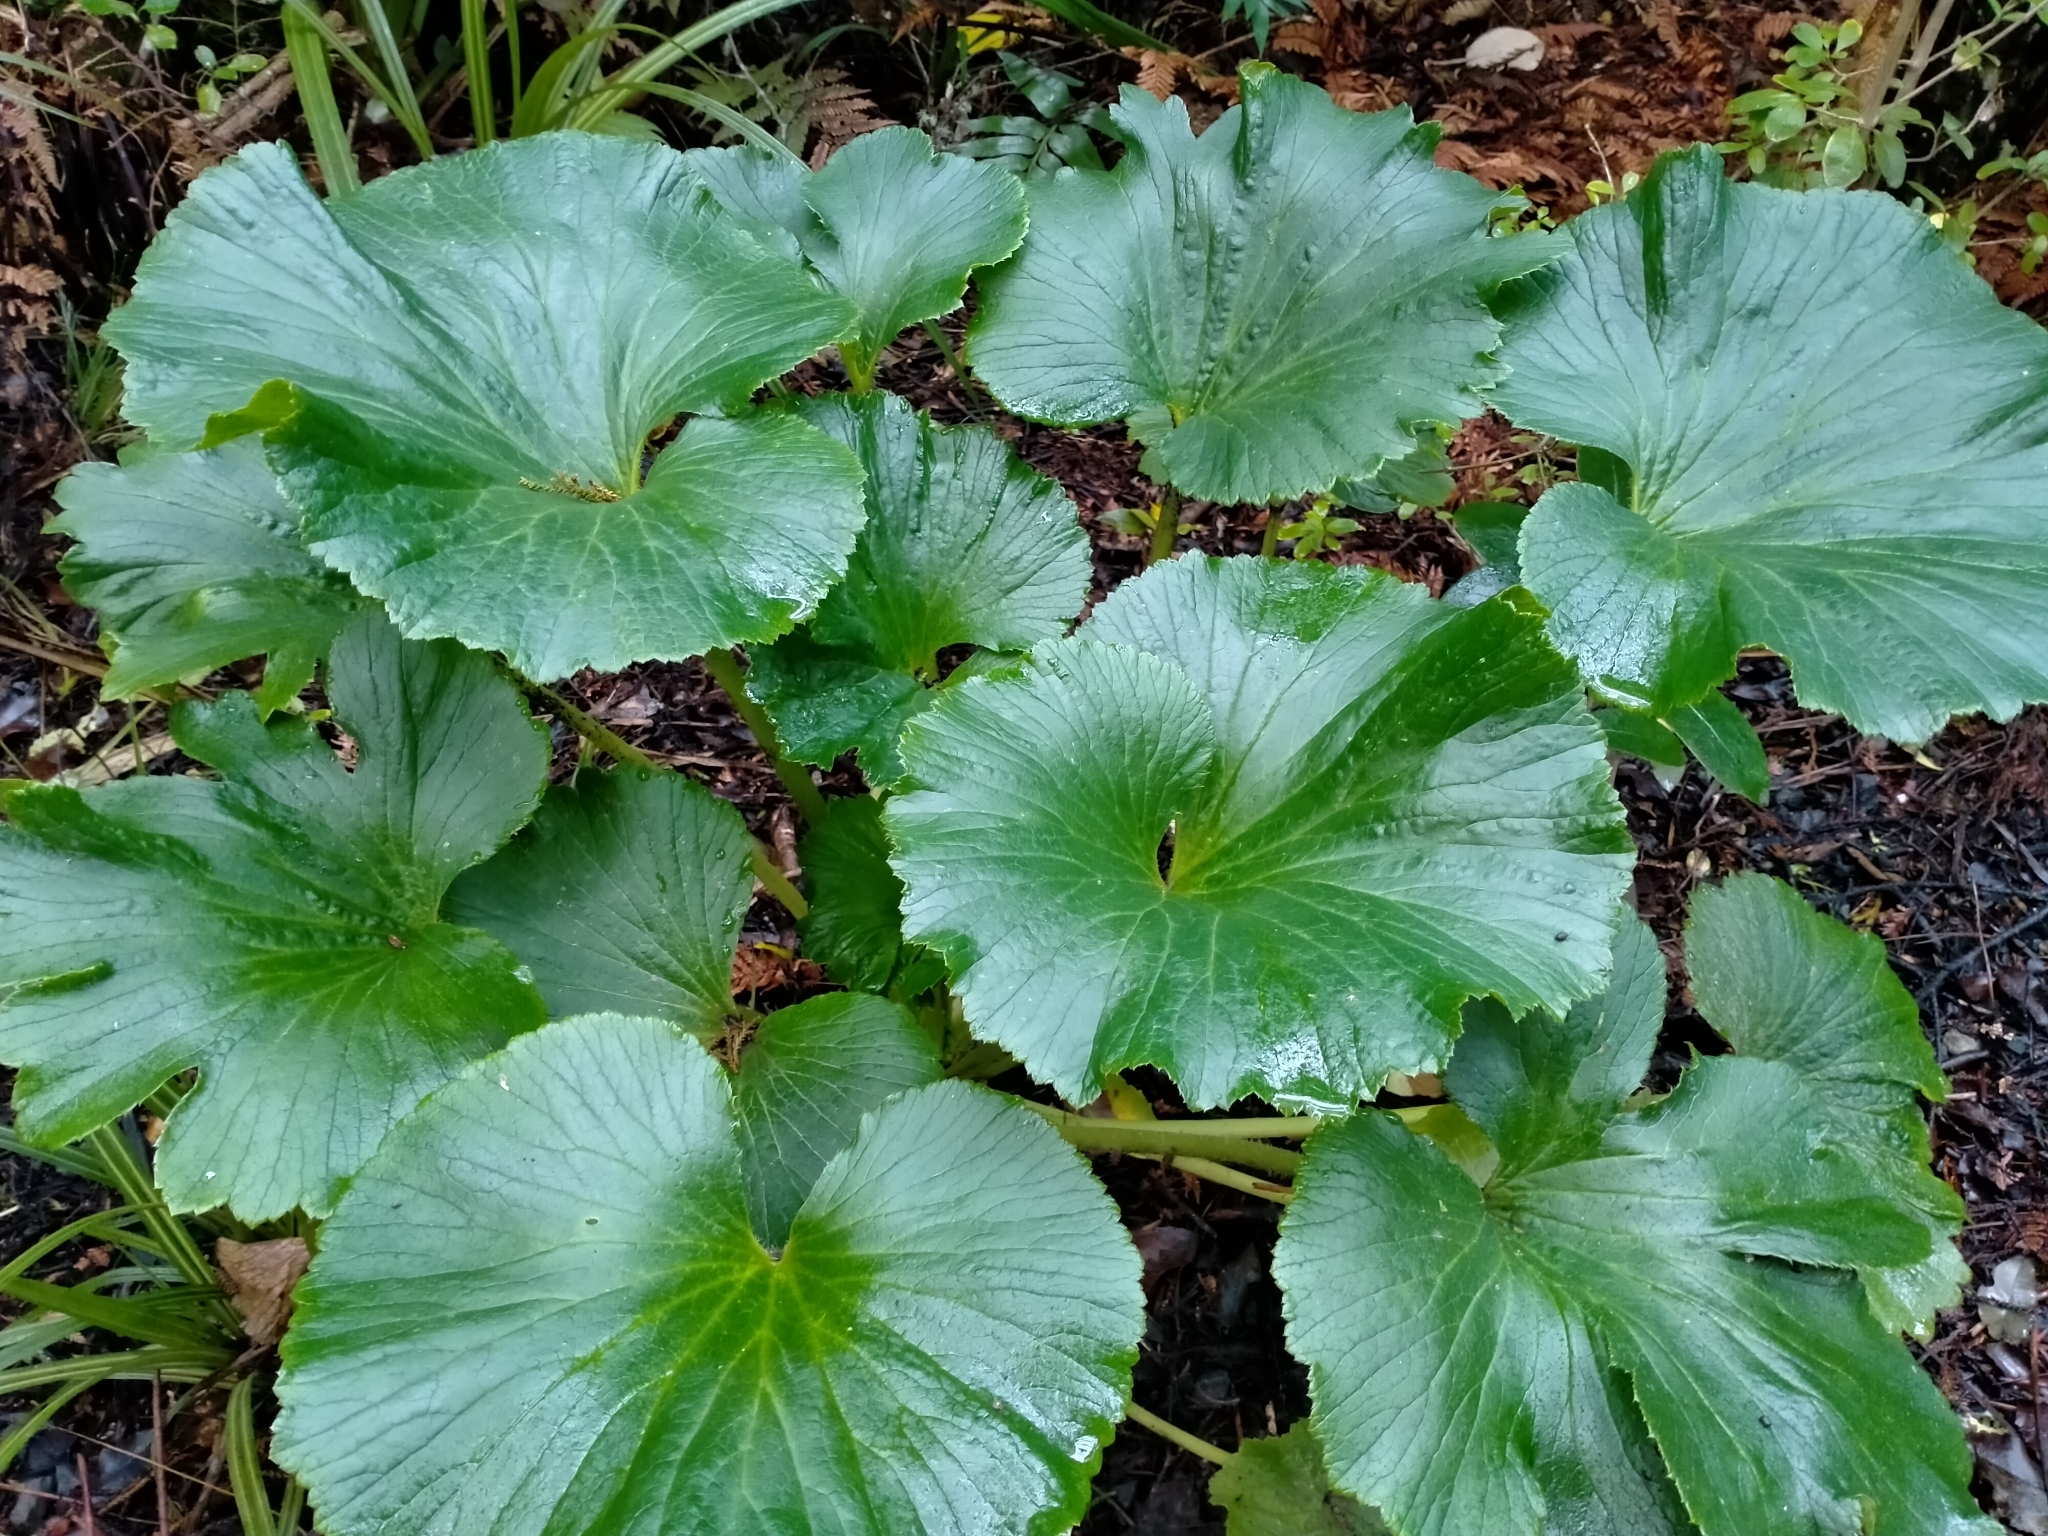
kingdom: Plantae
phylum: Tracheophyta
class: Magnoliopsida
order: Apiales
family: Apiaceae
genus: Azorella
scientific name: Azorella lyallii
